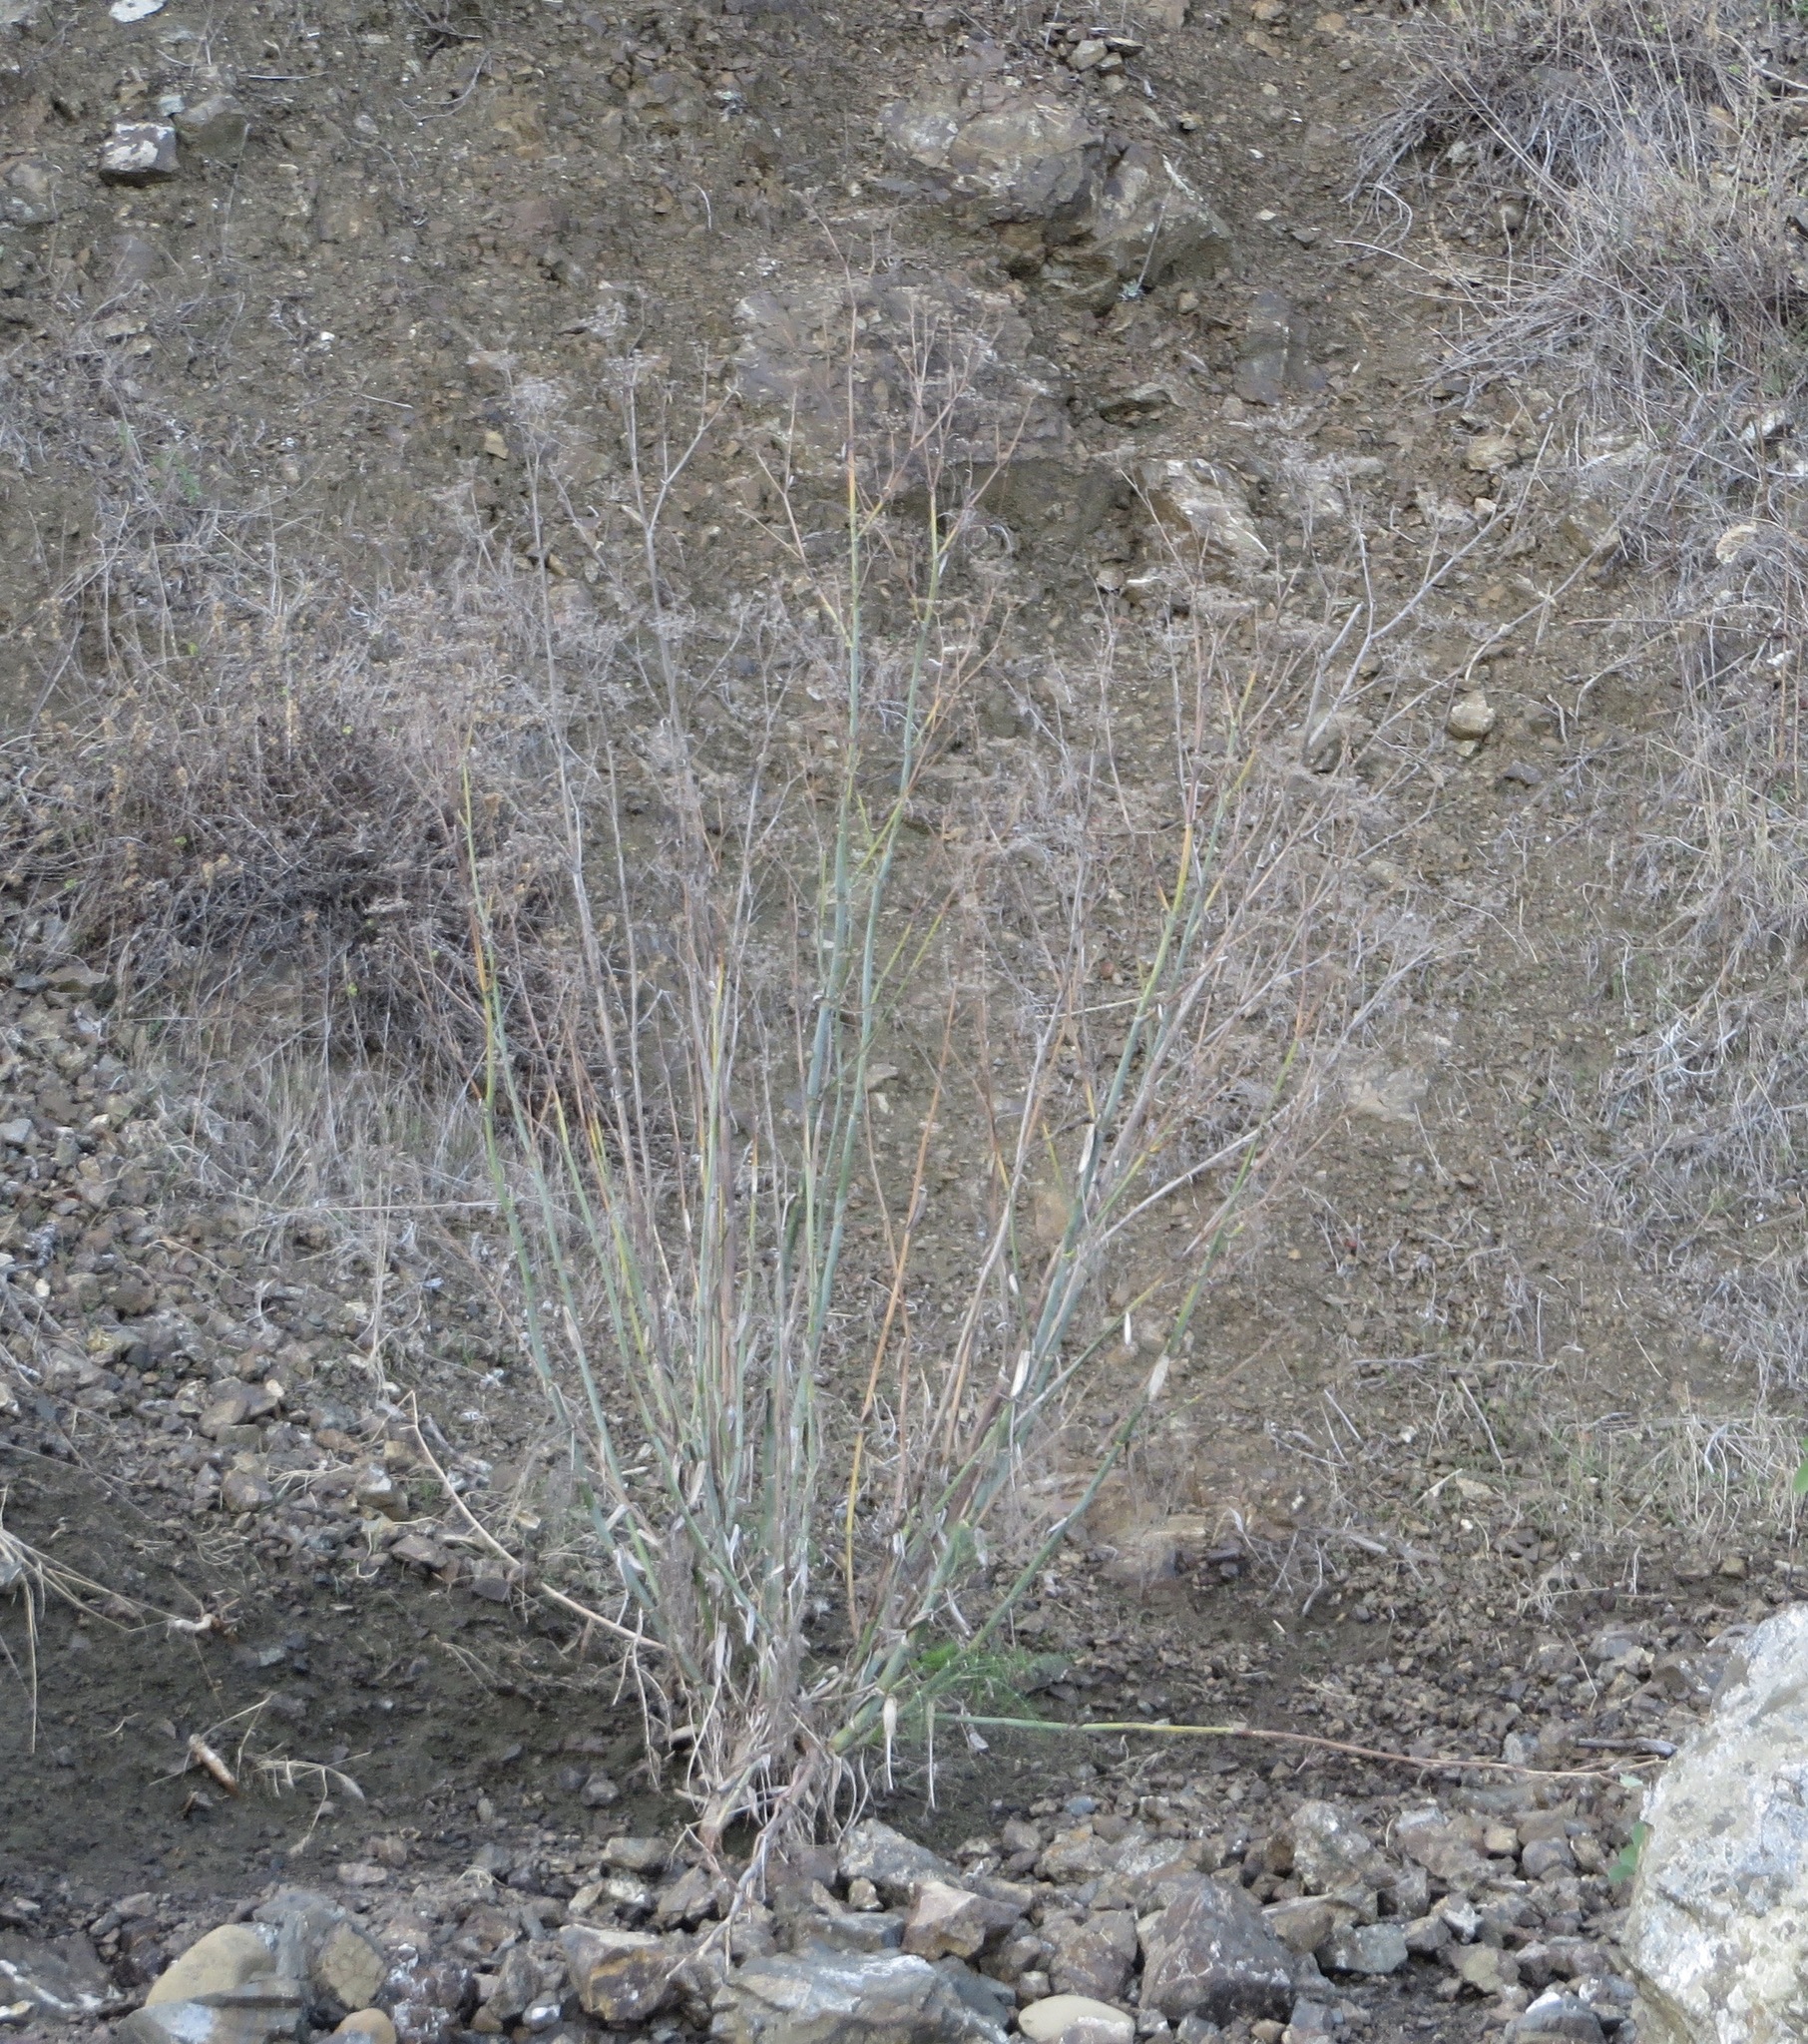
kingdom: Plantae
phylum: Tracheophyta
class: Magnoliopsida
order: Apiales
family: Apiaceae
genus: Foeniculum
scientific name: Foeniculum vulgare
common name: Fennel
